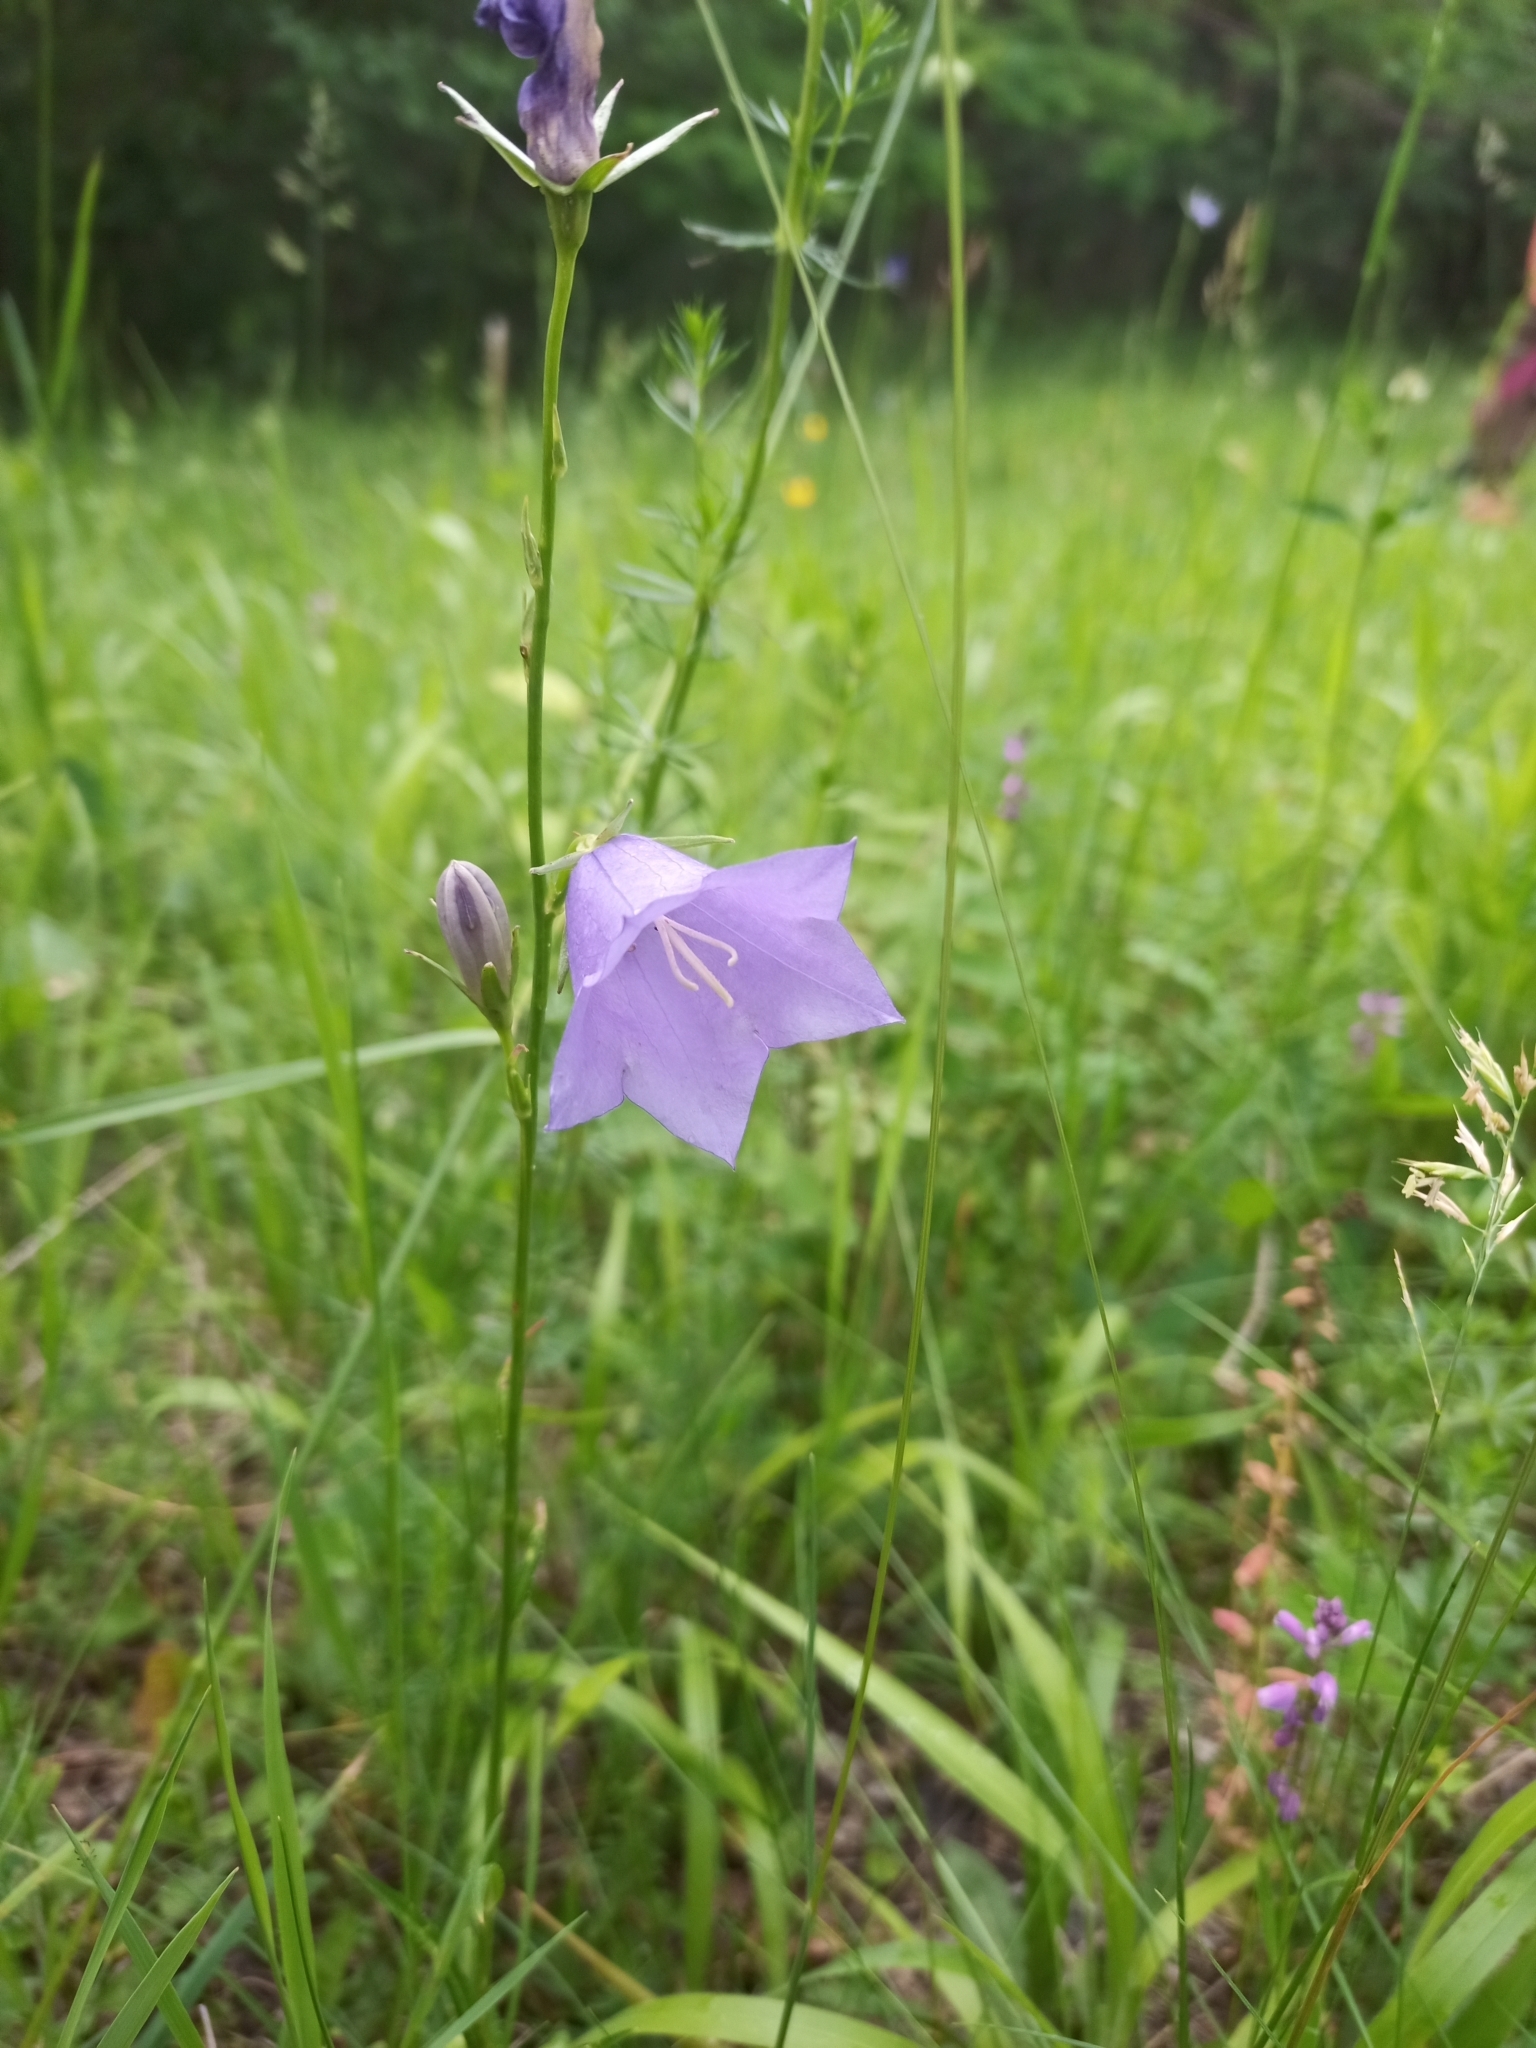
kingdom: Plantae
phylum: Tracheophyta
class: Magnoliopsida
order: Asterales
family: Campanulaceae
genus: Campanula
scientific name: Campanula persicifolia
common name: Peach-leaved bellflower
